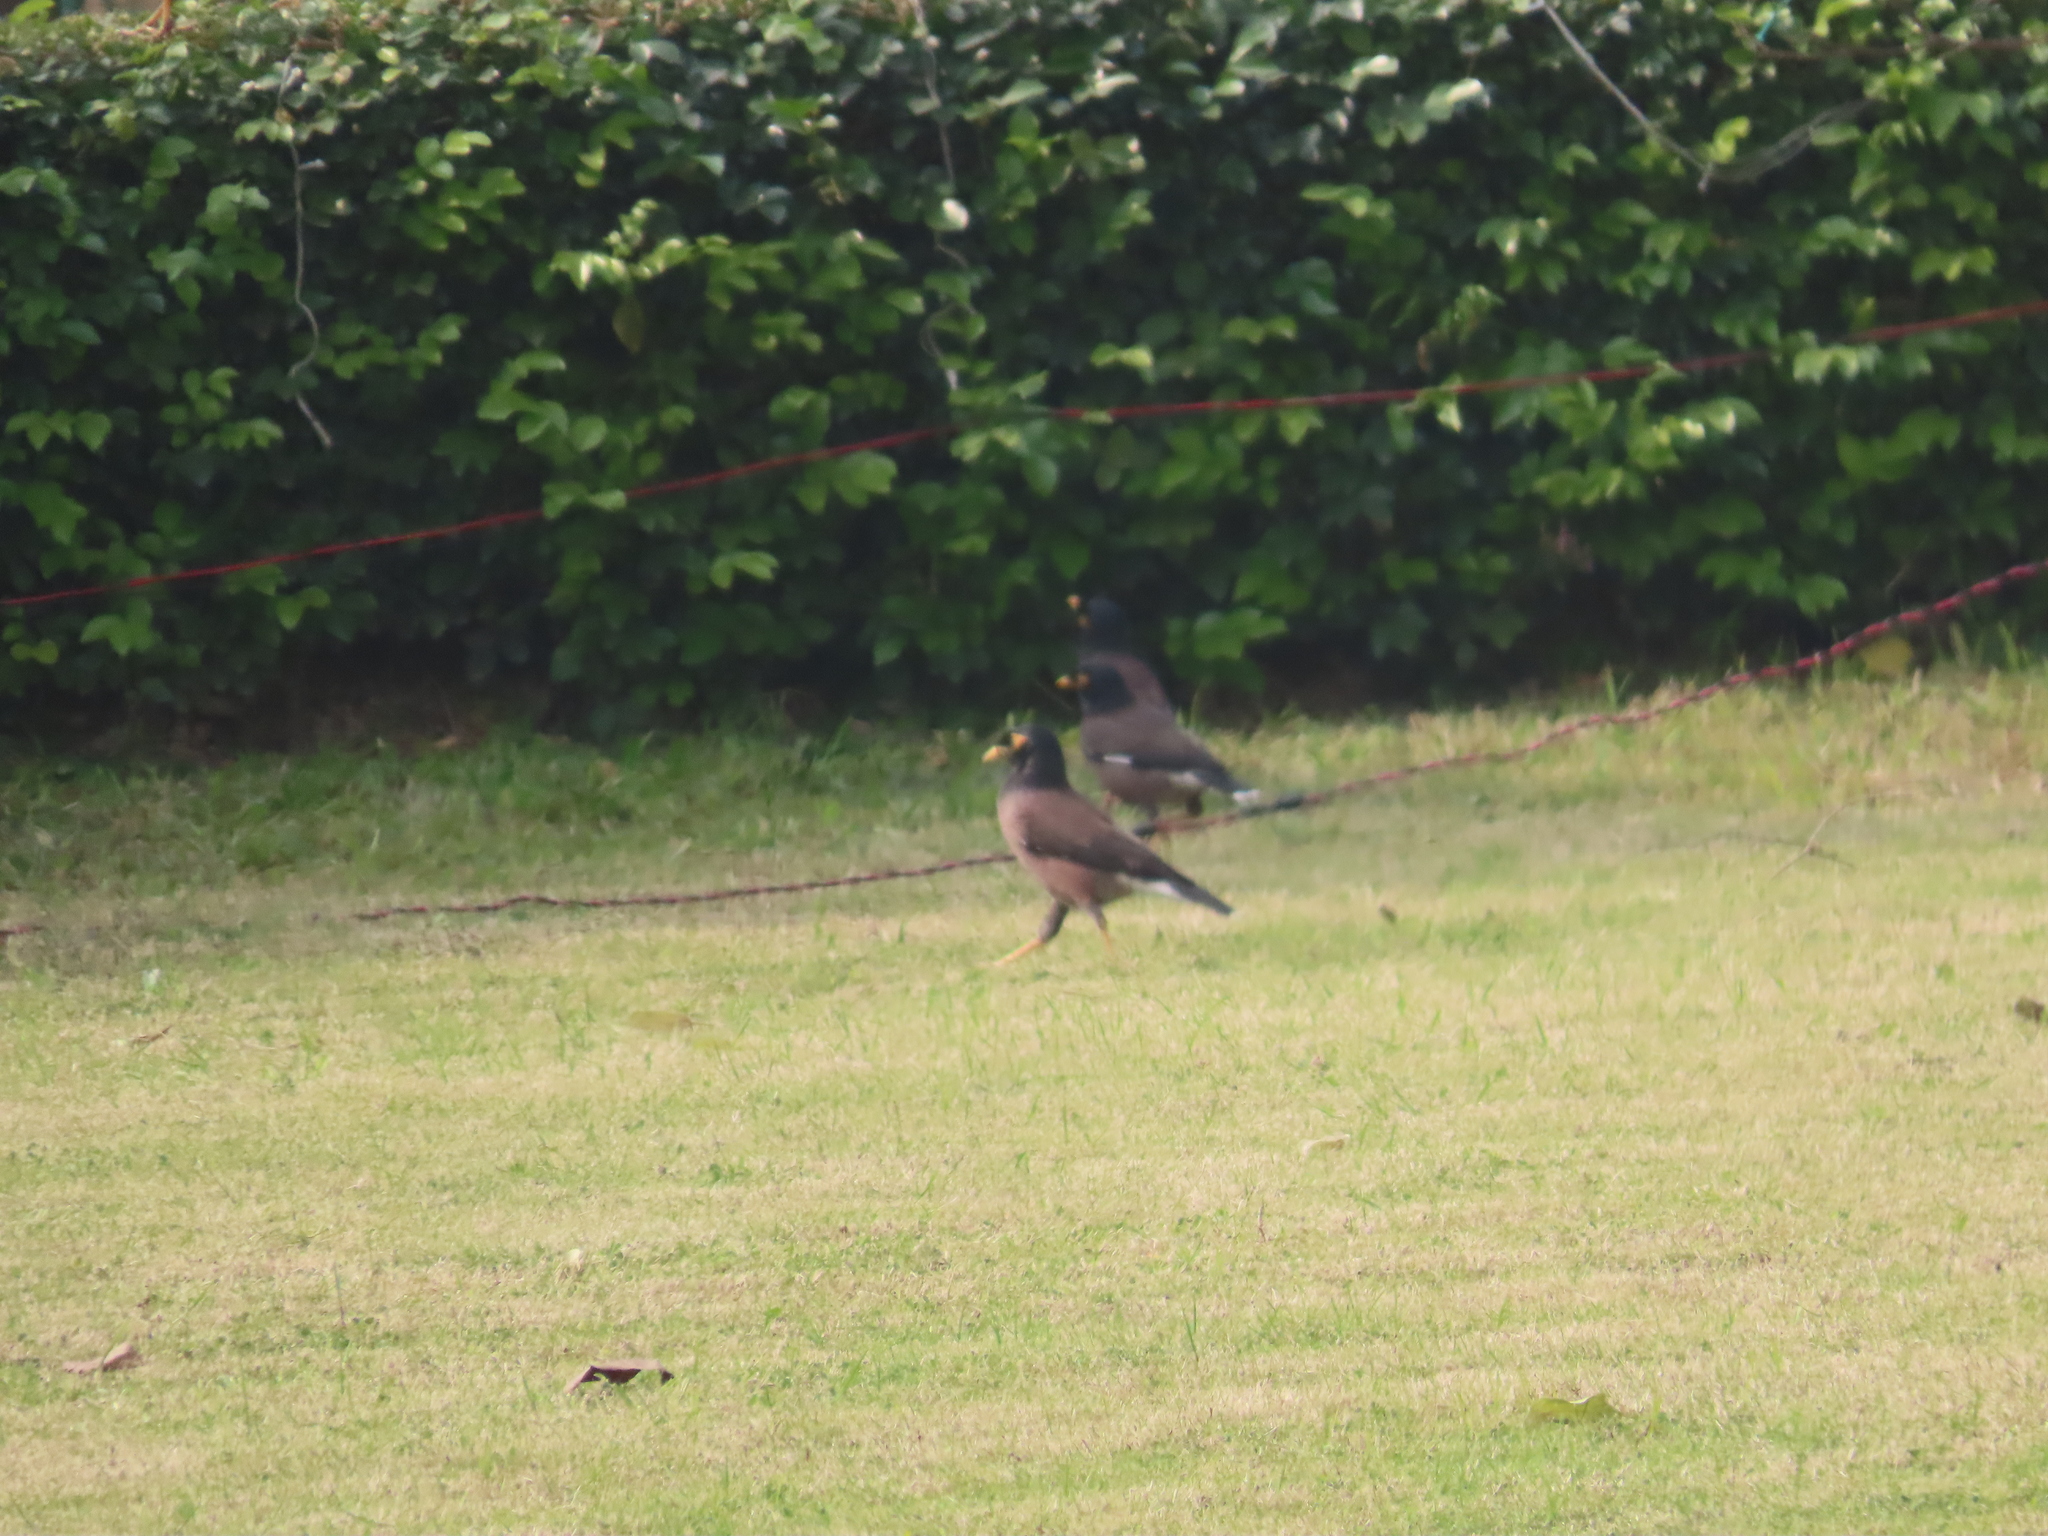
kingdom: Animalia
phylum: Chordata
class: Aves
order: Passeriformes
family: Sturnidae
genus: Acridotheres
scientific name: Acridotheres tristis
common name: Common myna
